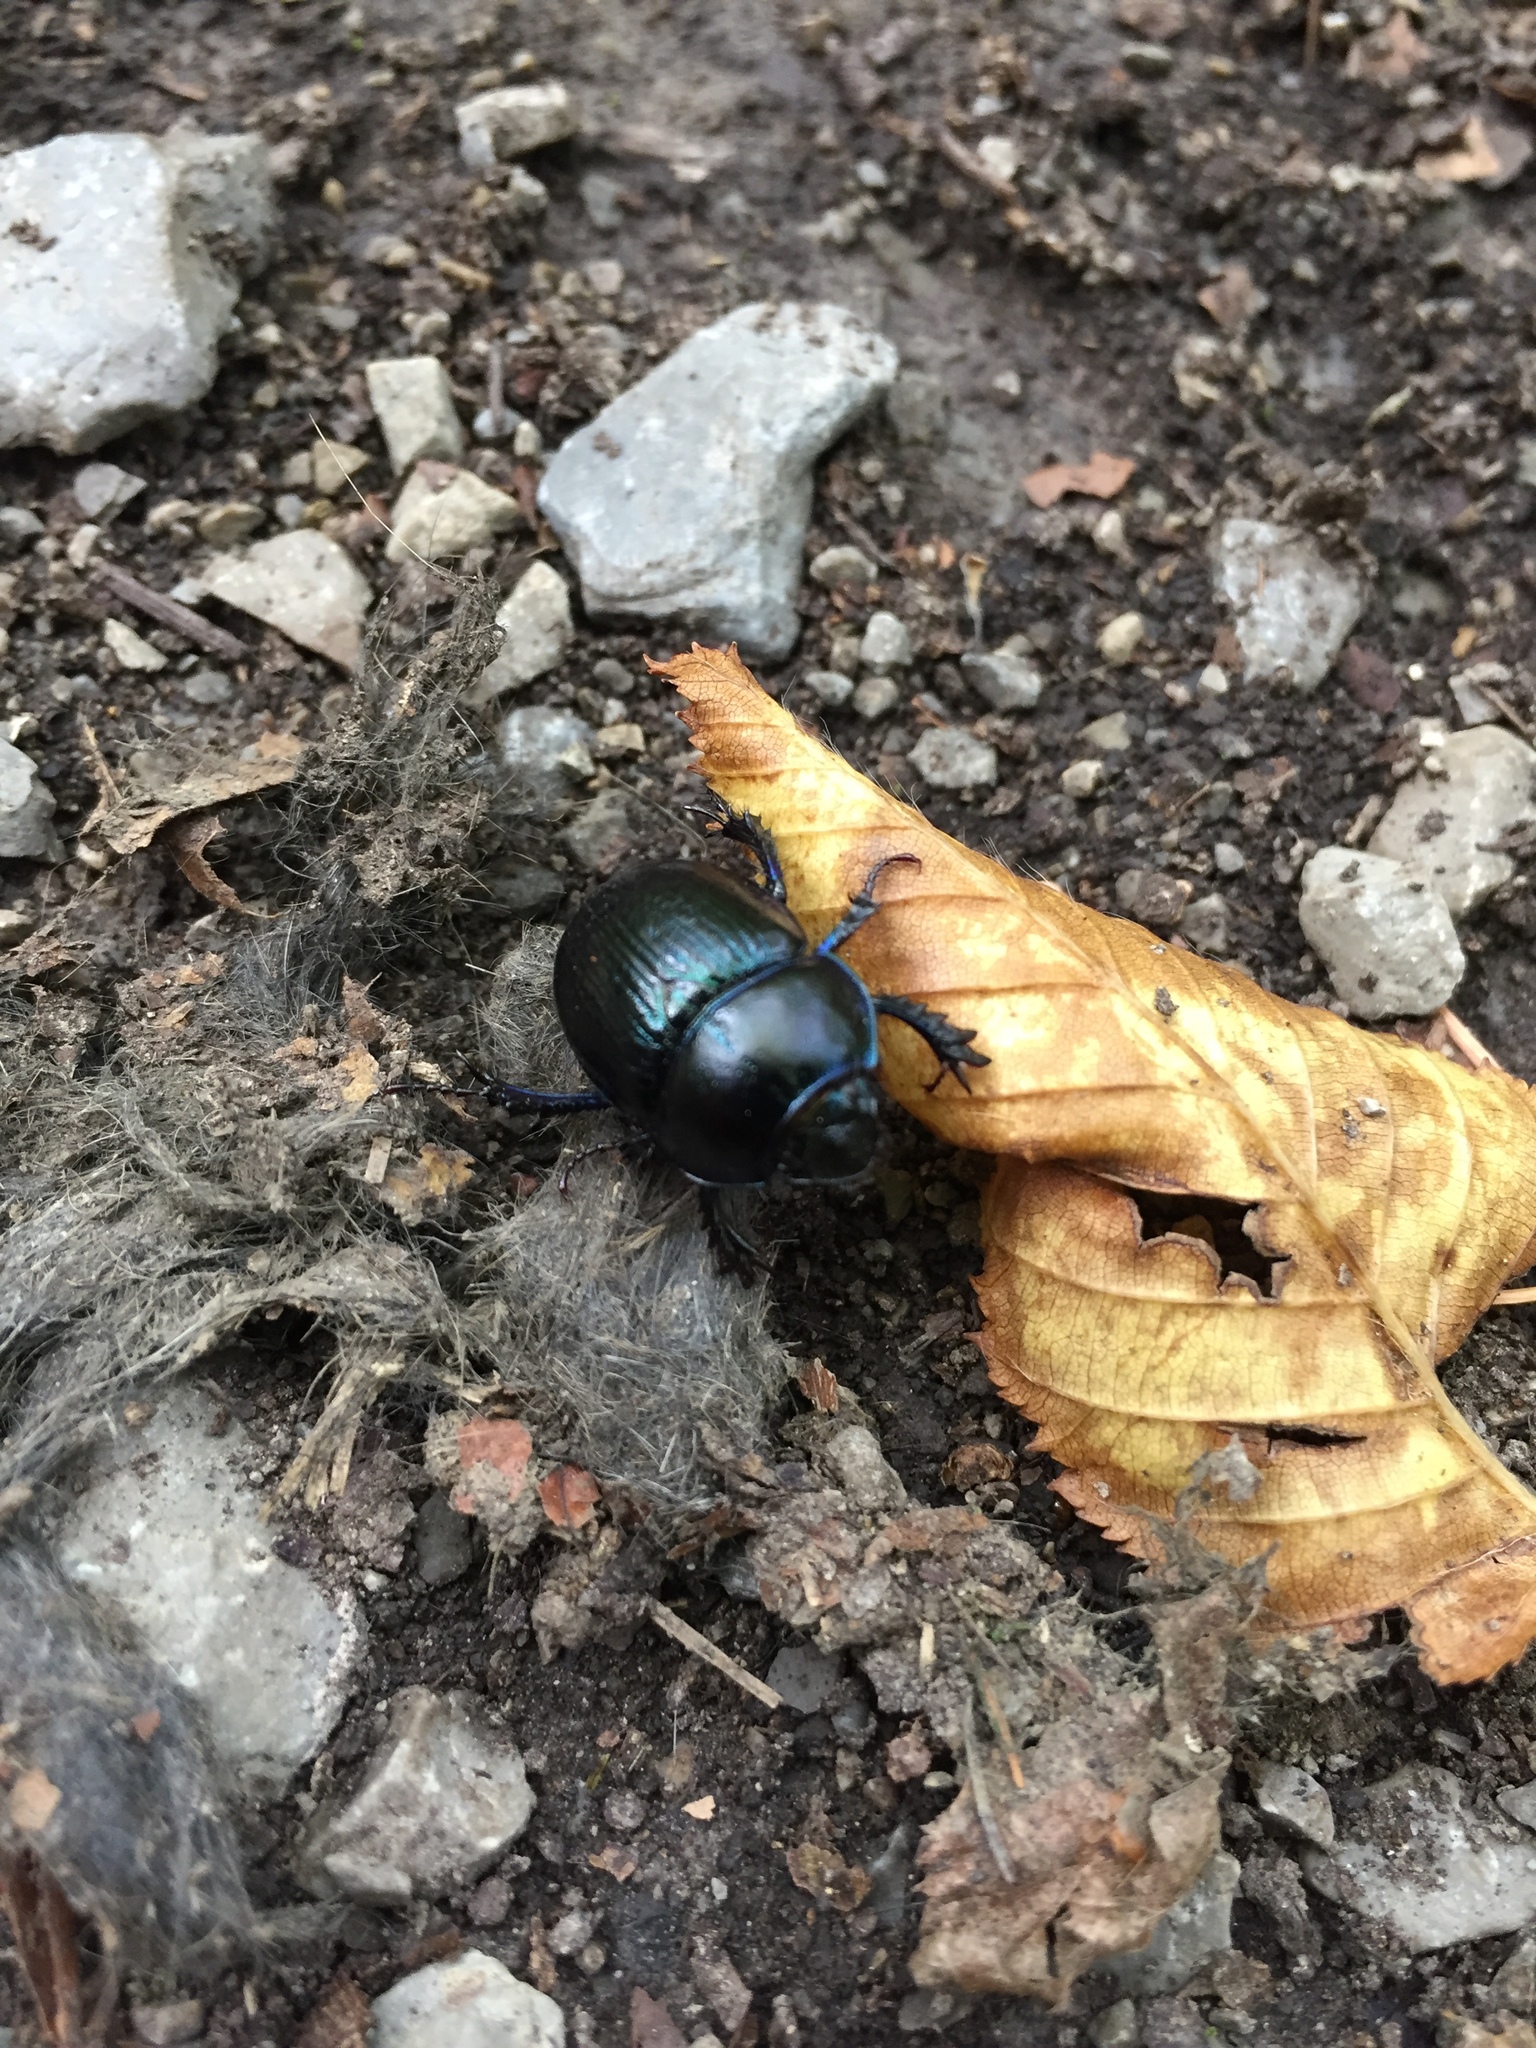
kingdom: Animalia
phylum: Arthropoda
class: Insecta
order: Coleoptera
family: Geotrupidae
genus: Anoplotrupes
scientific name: Anoplotrupes stercorosus
